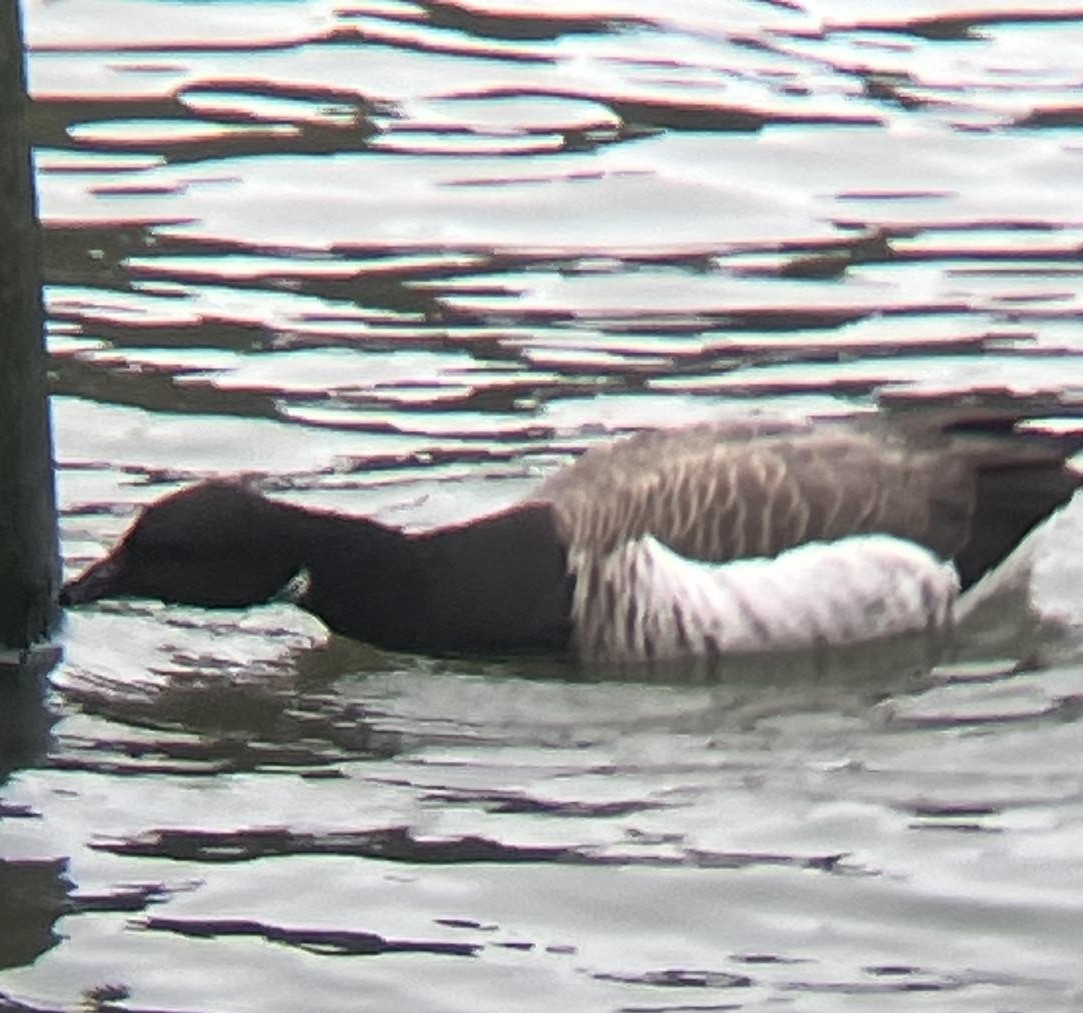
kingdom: Animalia
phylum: Chordata
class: Aves
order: Anseriformes
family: Anatidae
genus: Branta
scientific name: Branta bernicla
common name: Brant goose
